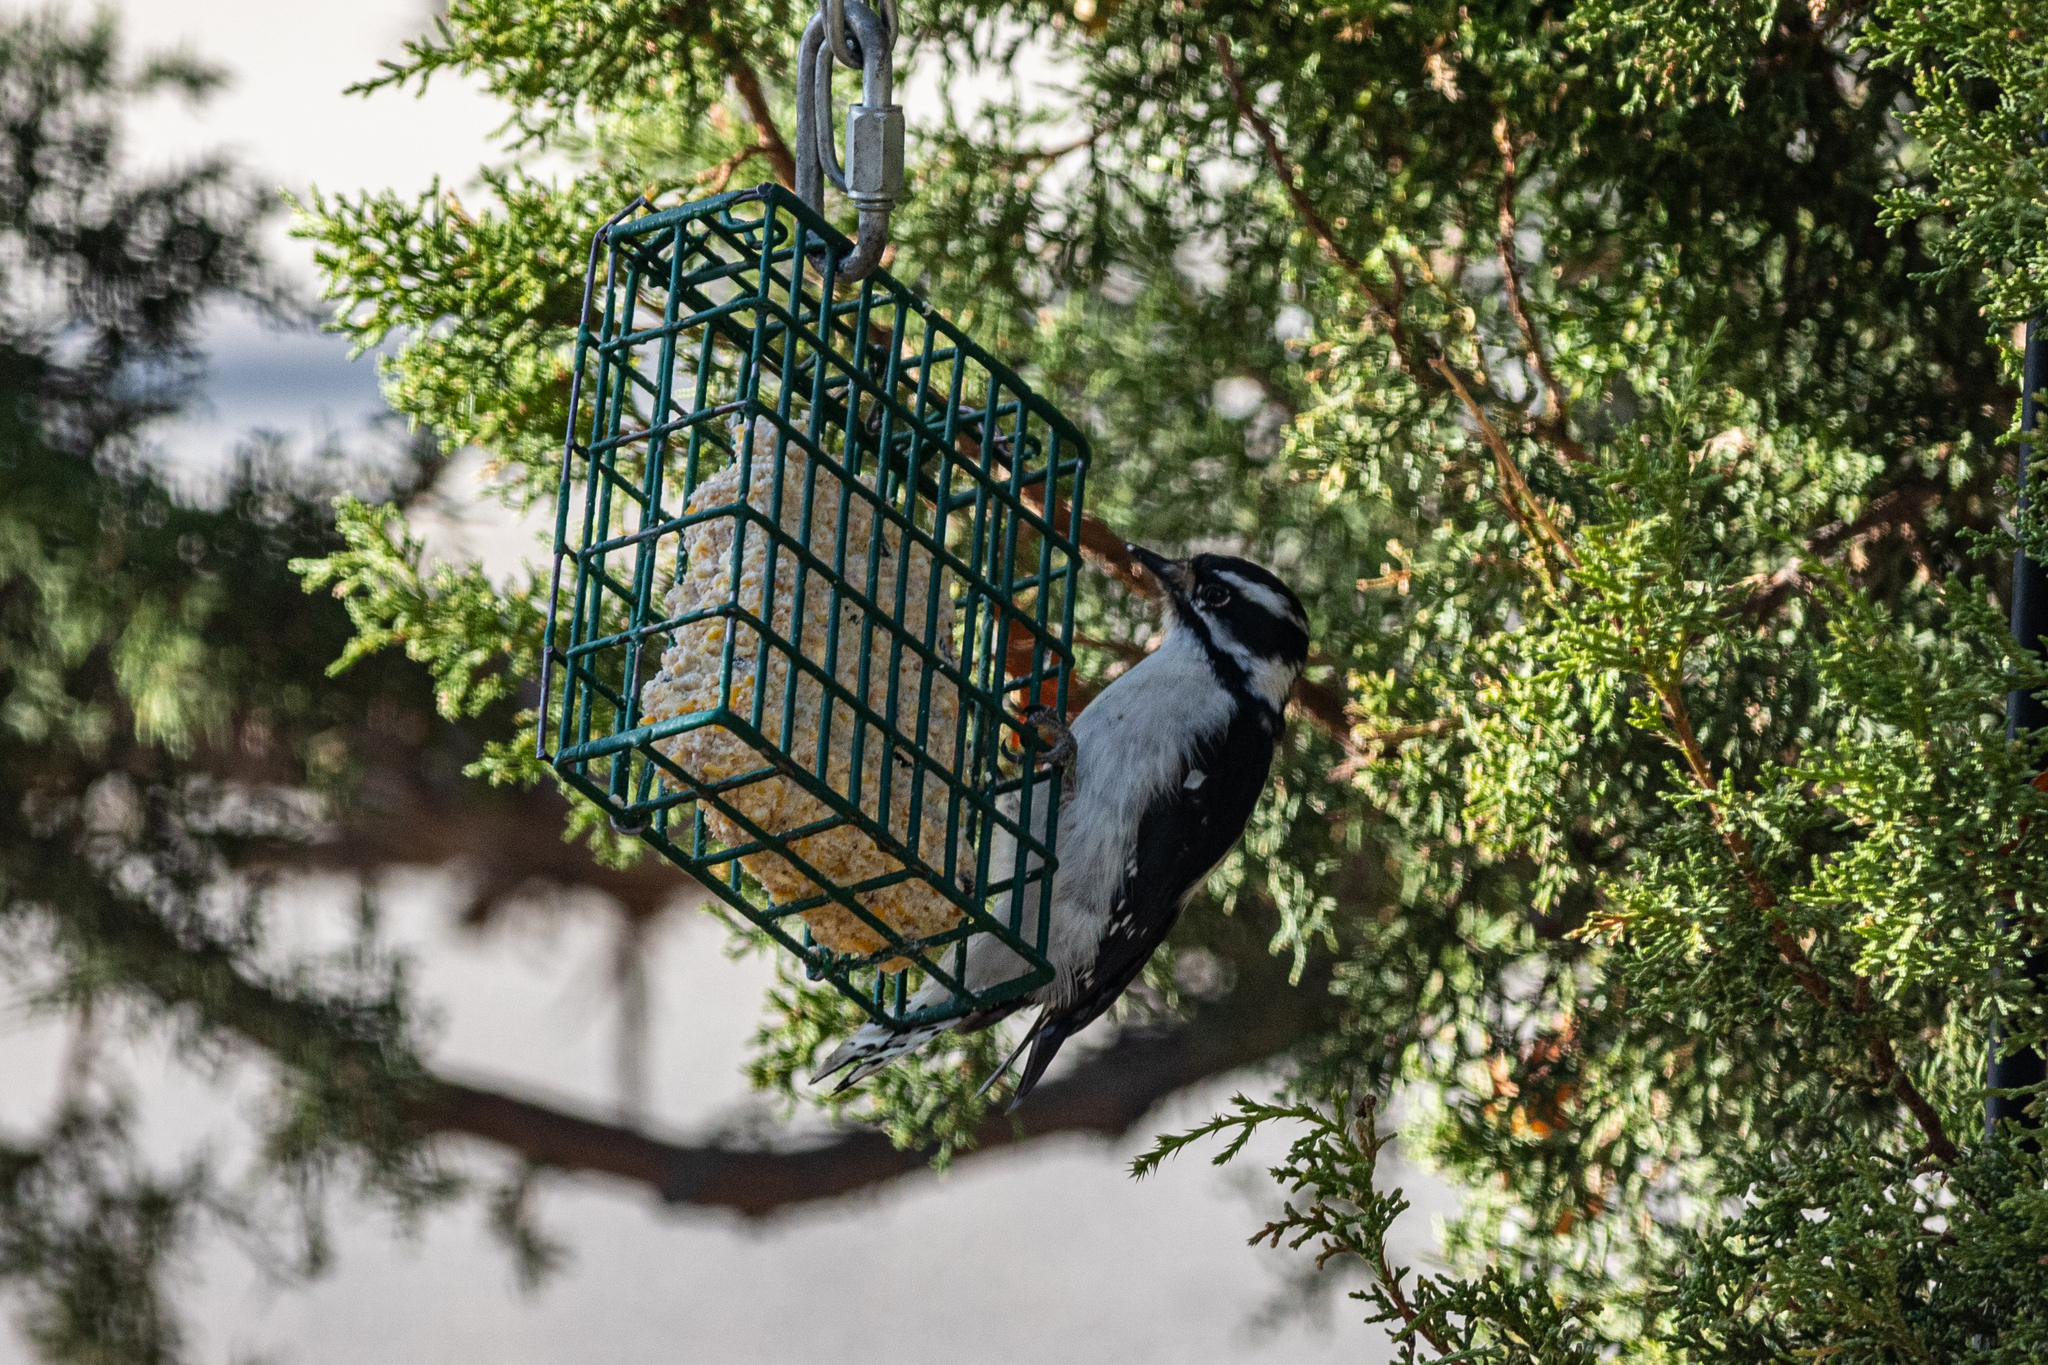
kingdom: Animalia
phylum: Chordata
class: Aves
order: Piciformes
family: Picidae
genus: Dryobates
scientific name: Dryobates pubescens
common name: Downy woodpecker
